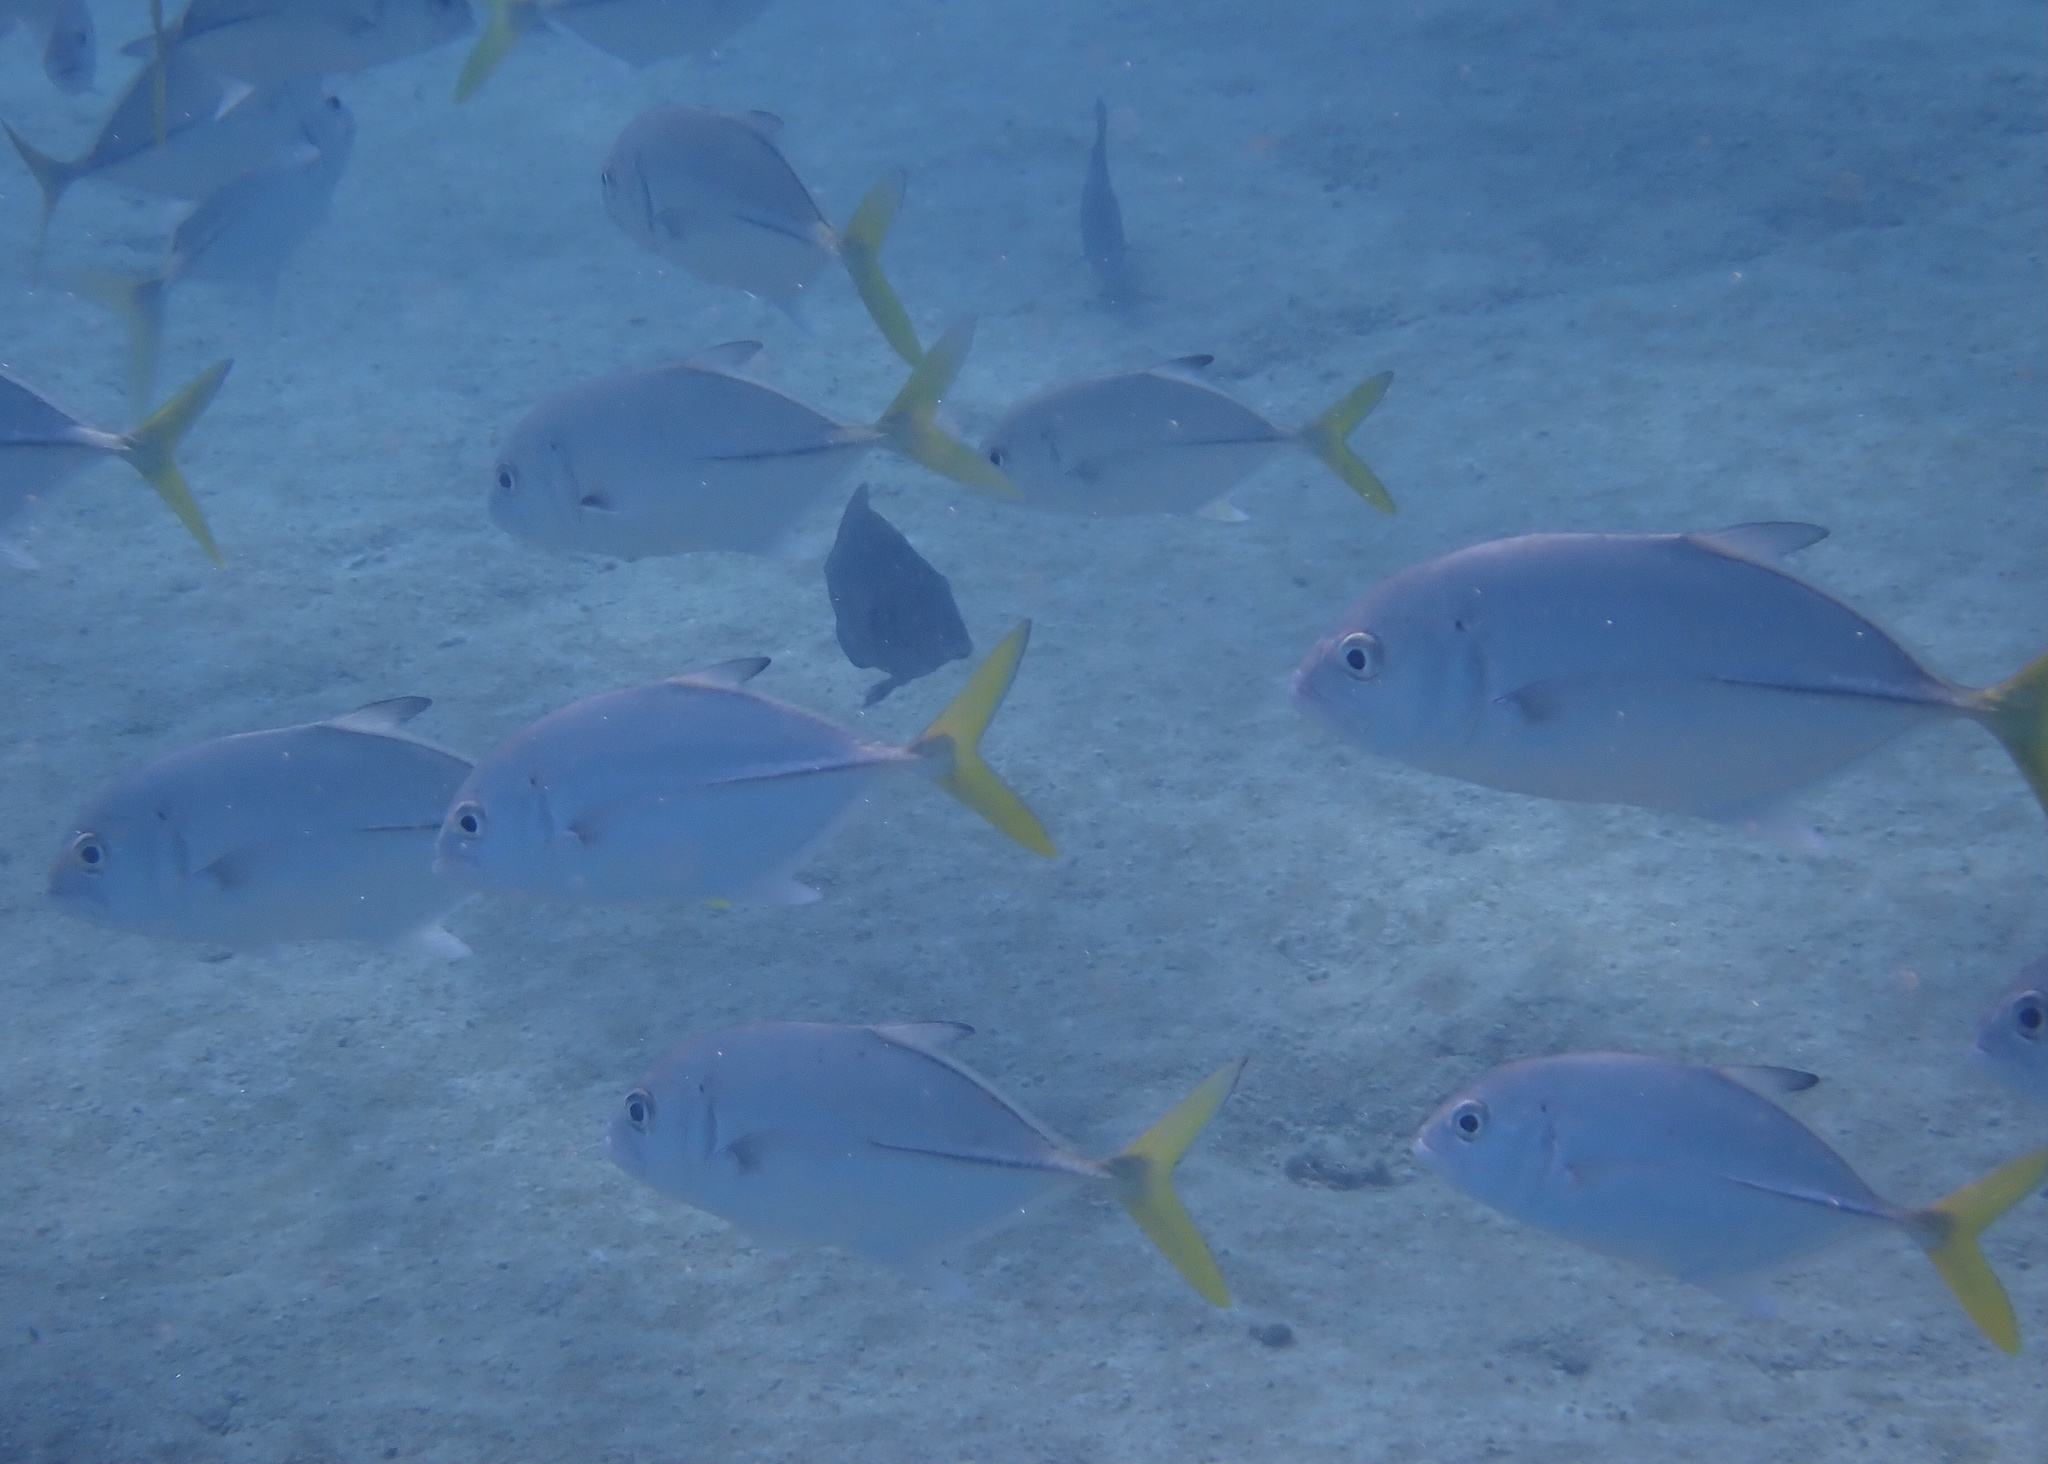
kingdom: Animalia
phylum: Chordata
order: Perciformes
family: Carangidae
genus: Caranx
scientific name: Caranx latus
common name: Horse eye jack
